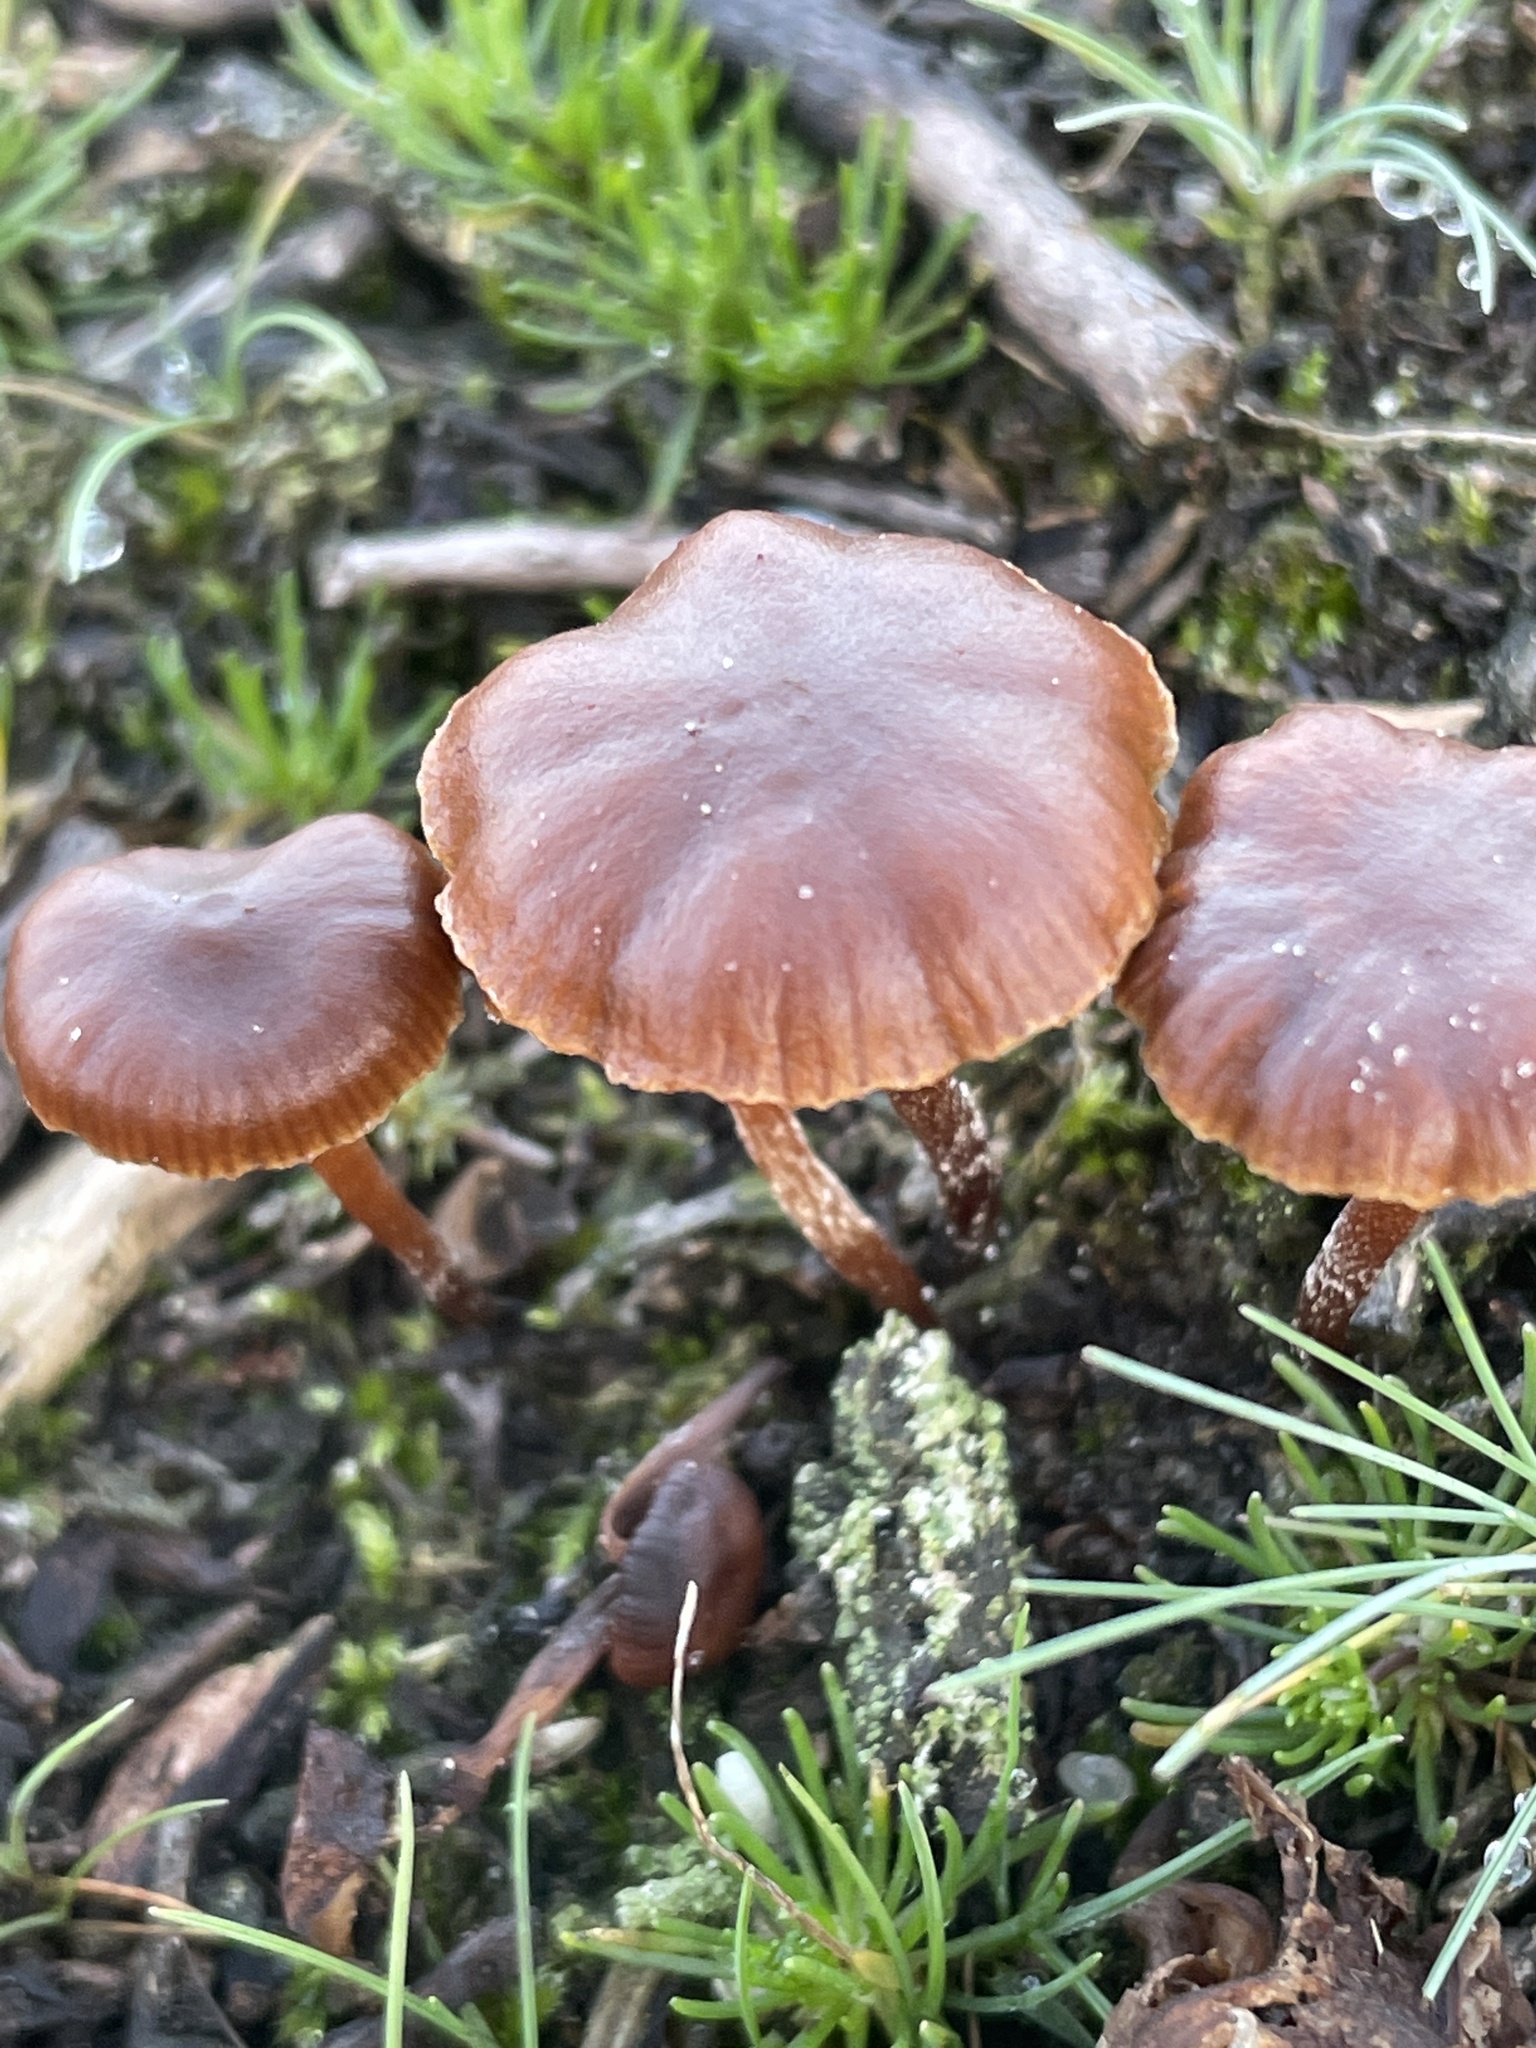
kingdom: Fungi
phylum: Basidiomycota
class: Agaricomycetes
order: Agaricales
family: Strophariaceae
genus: Deconica
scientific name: Deconica montana
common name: Mountain moss deconica
